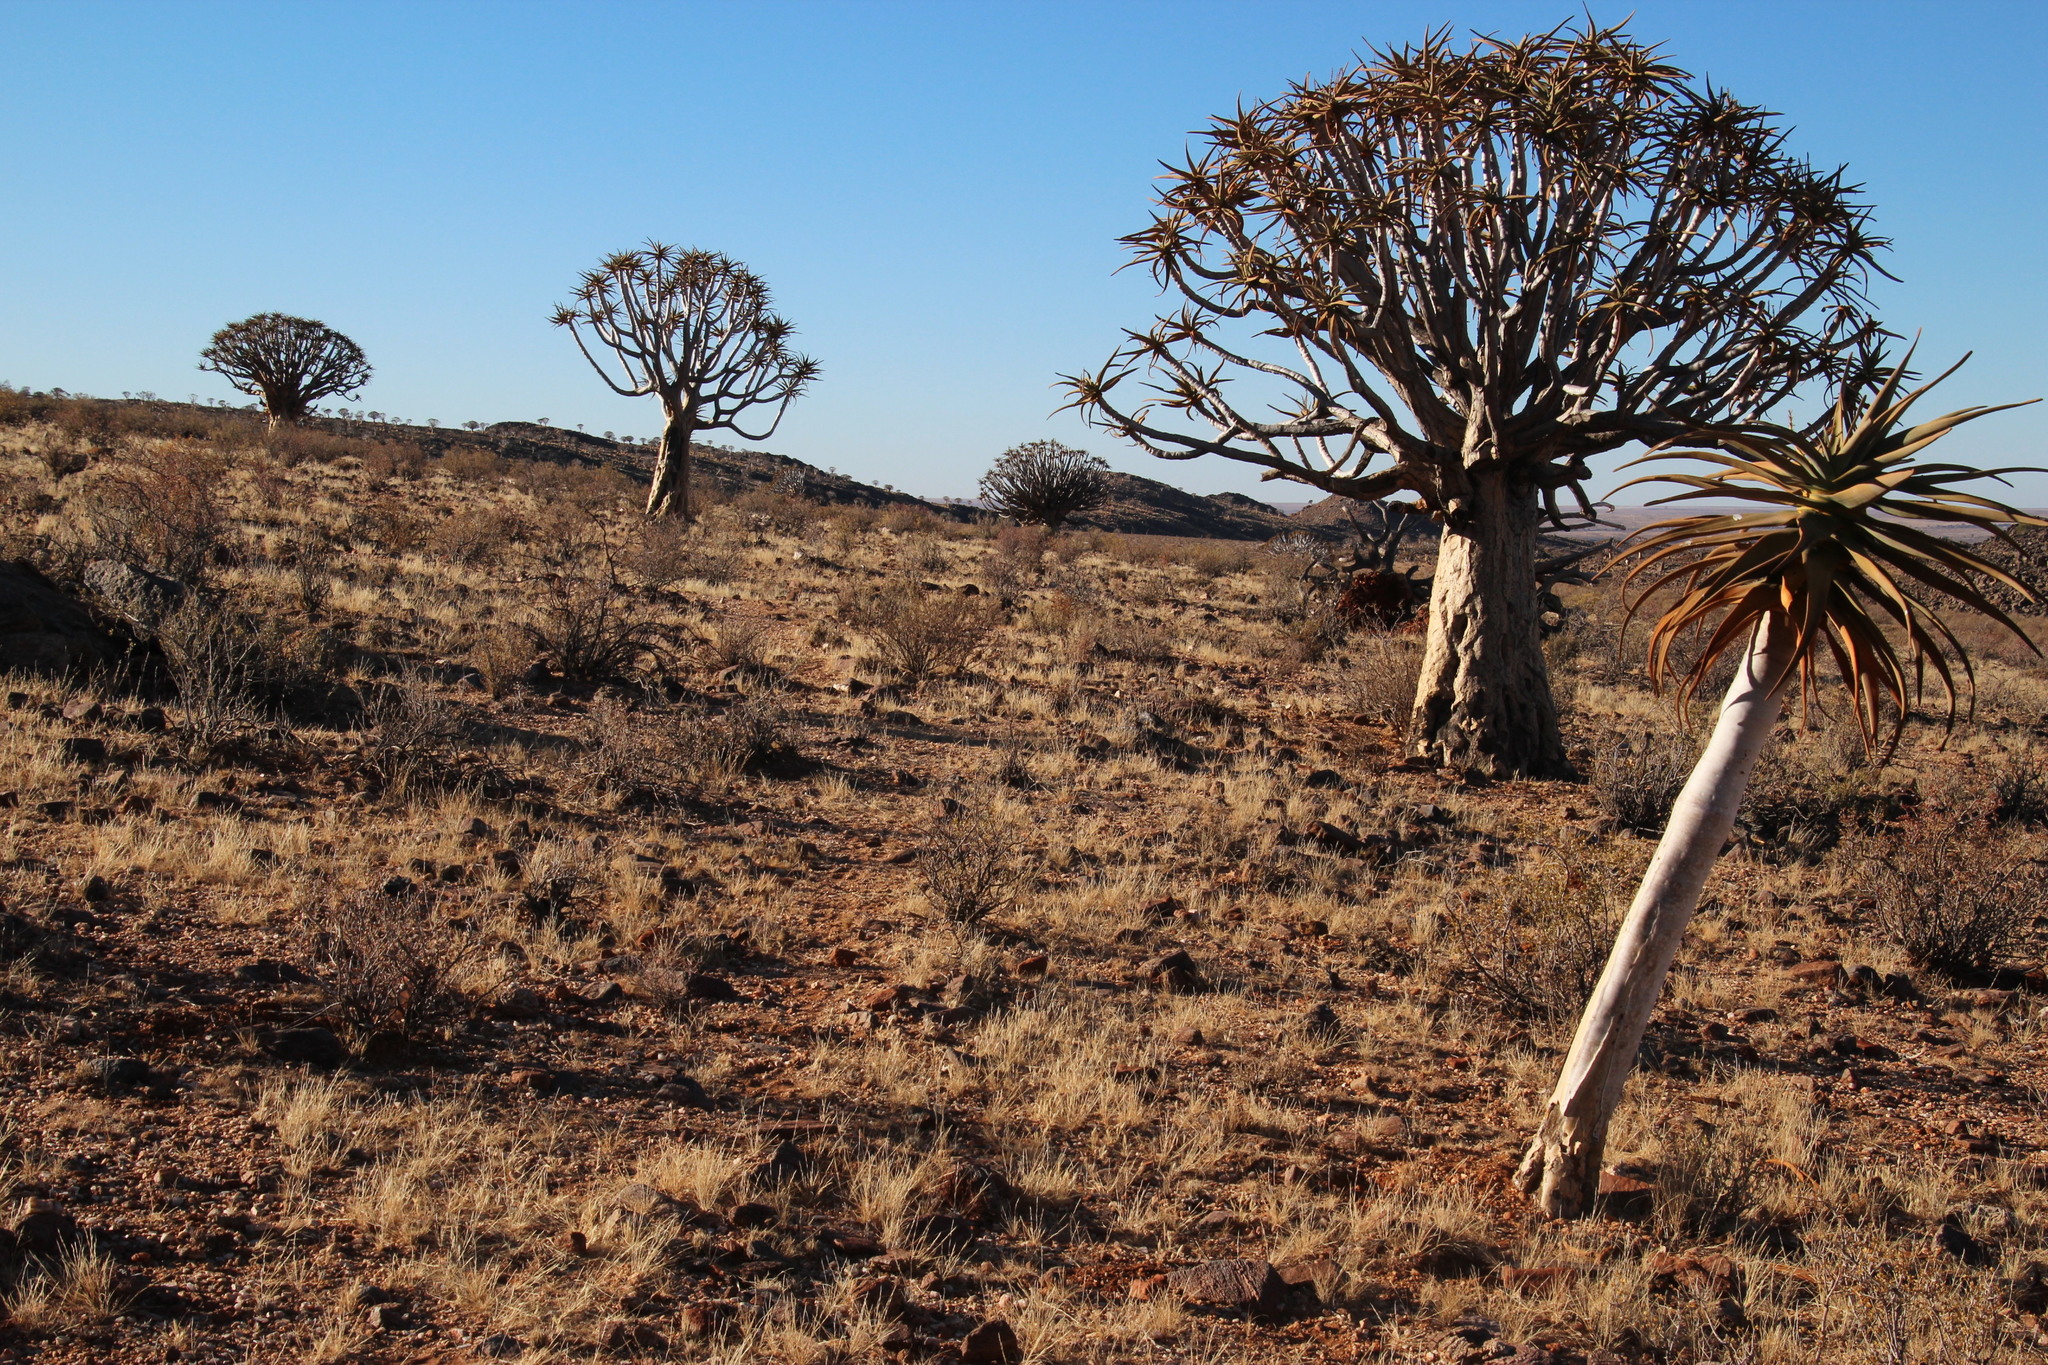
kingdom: Plantae
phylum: Tracheophyta
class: Liliopsida
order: Asparagales
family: Asphodelaceae
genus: Aloidendron
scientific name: Aloidendron dichotomum
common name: Quiver tree
